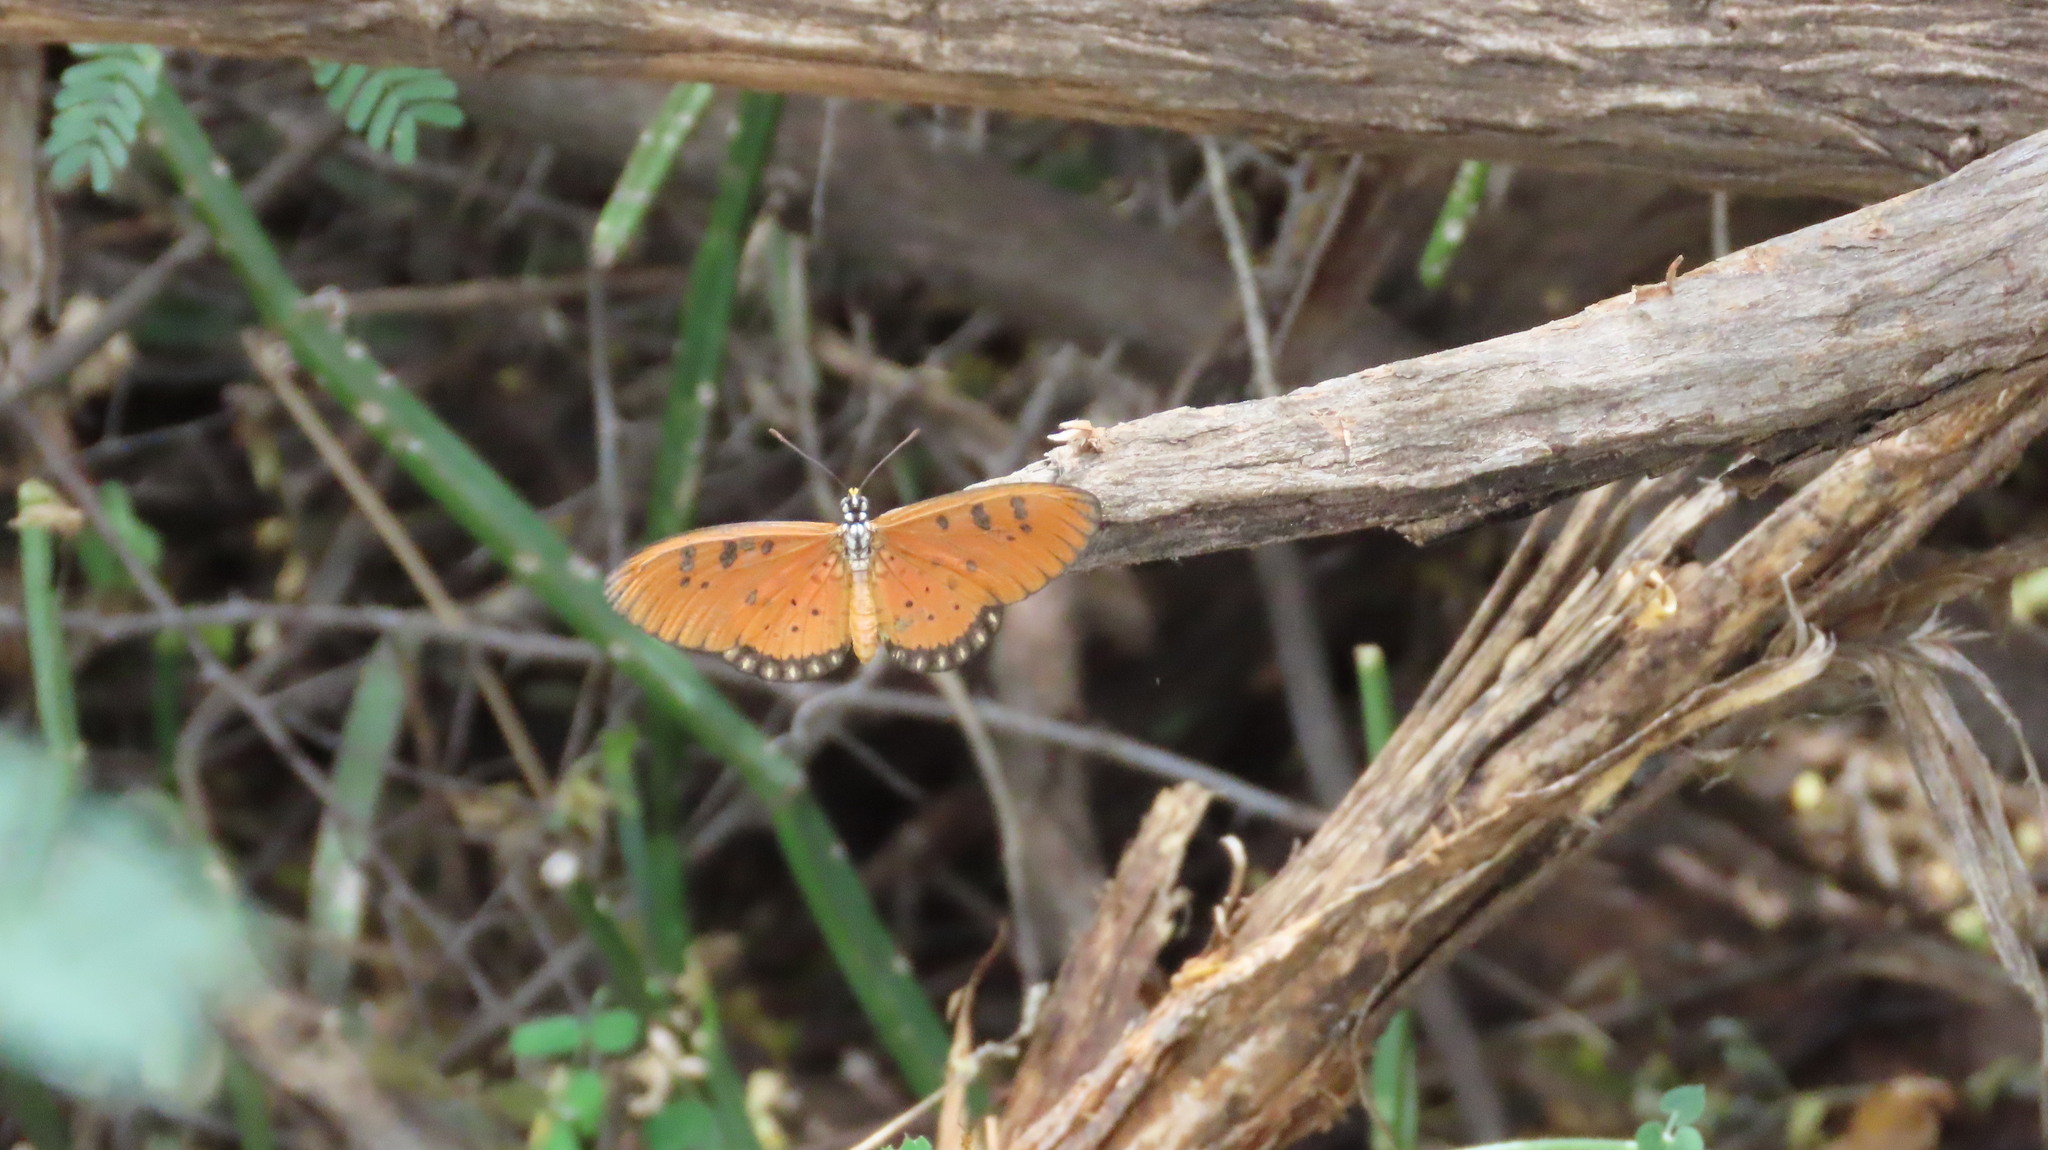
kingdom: Animalia
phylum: Arthropoda
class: Insecta
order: Lepidoptera
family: Nymphalidae
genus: Acraea
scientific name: Acraea terpsicore
